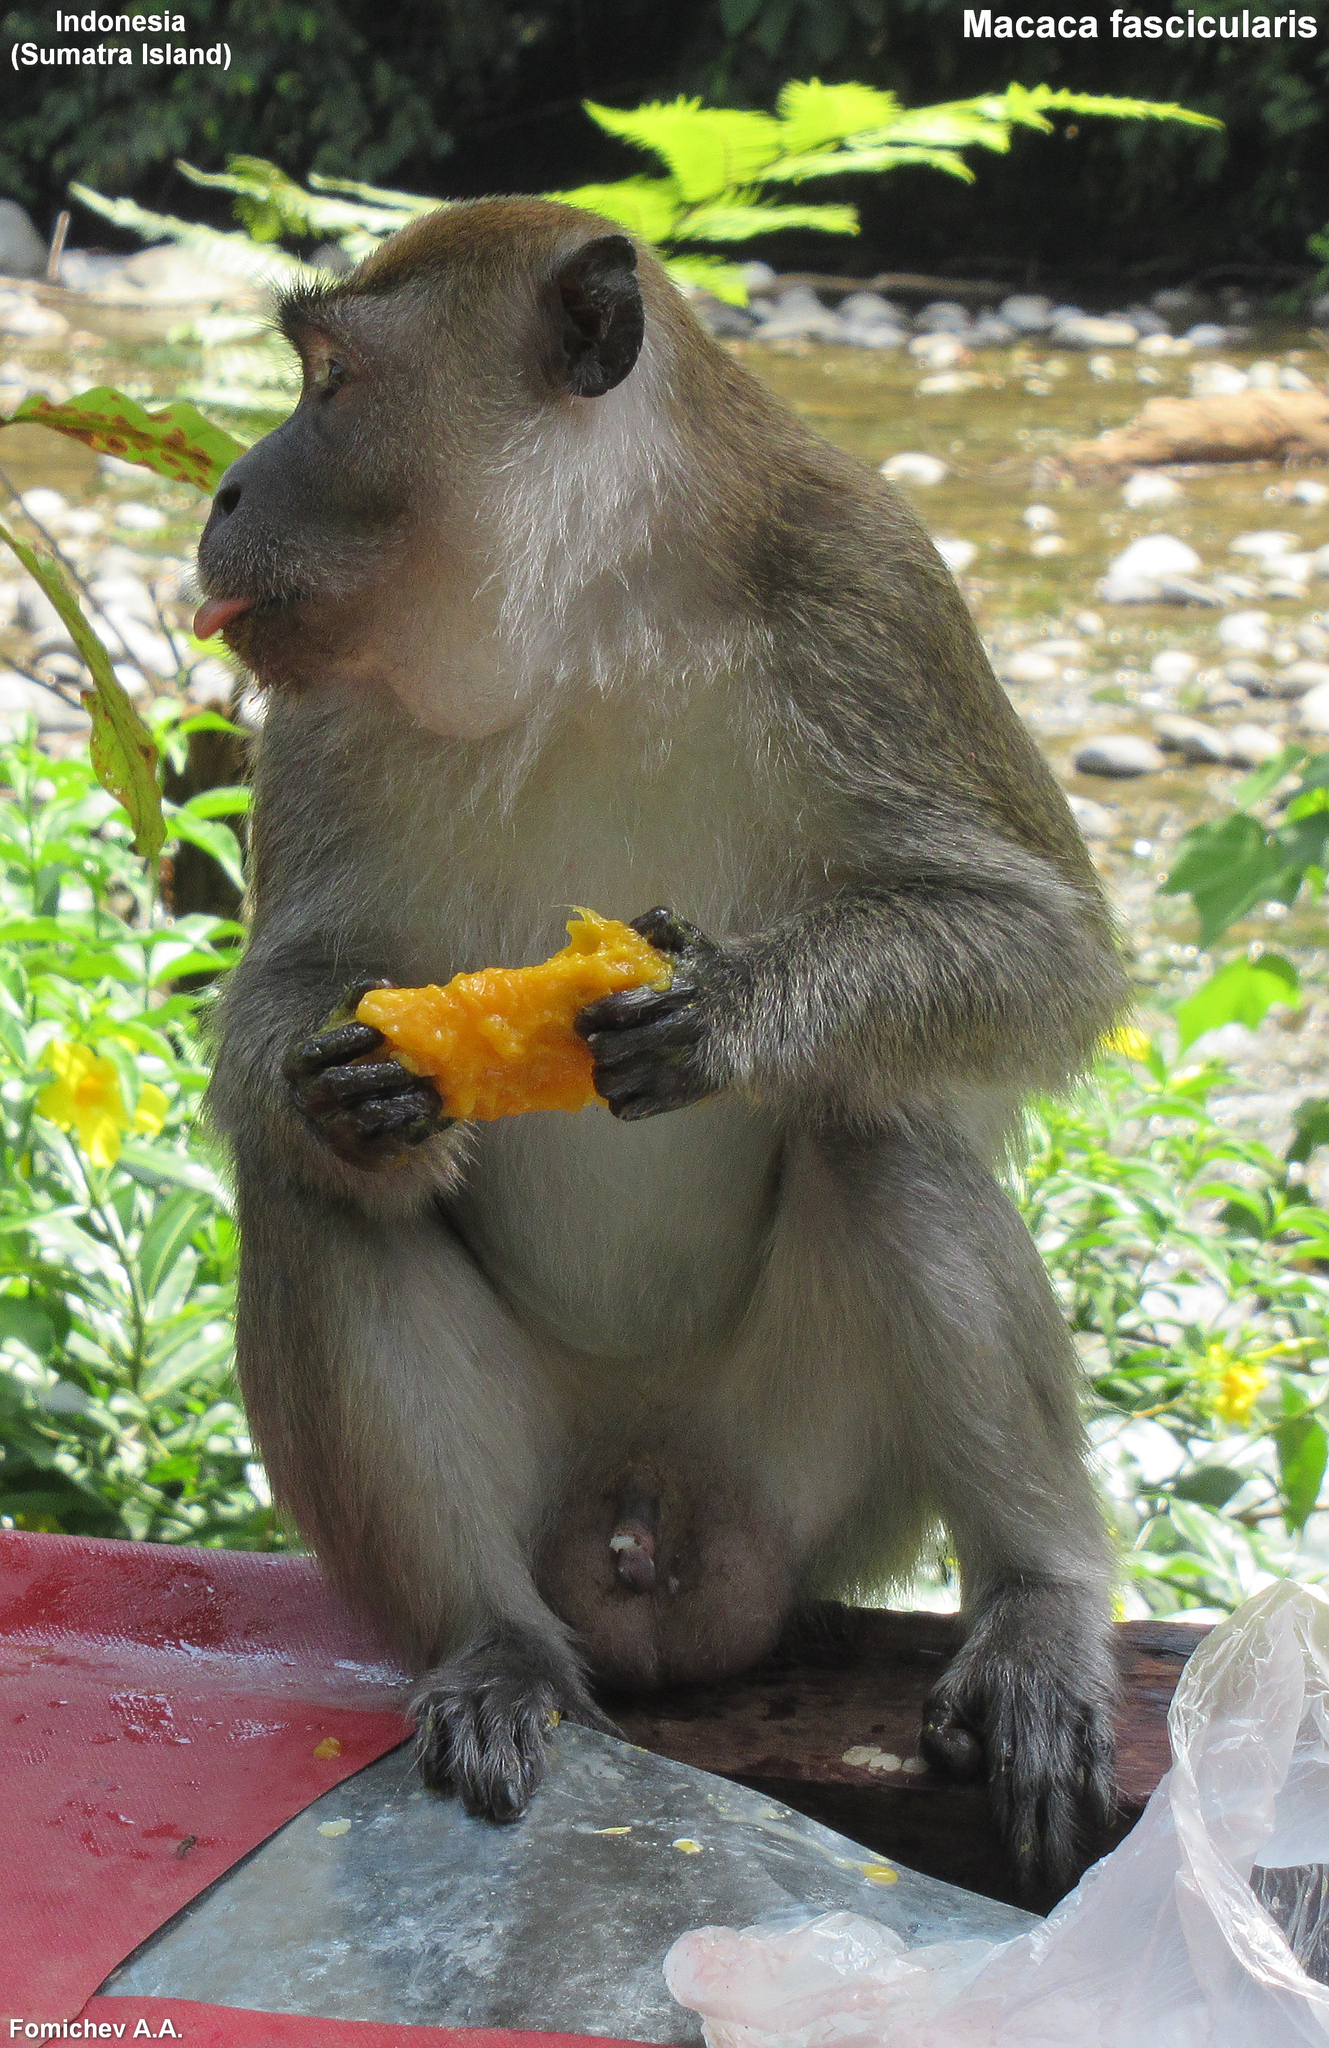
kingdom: Animalia
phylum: Chordata
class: Mammalia
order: Primates
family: Cercopithecidae
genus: Macaca
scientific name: Macaca fascicularis
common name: Crab-eating macaque
